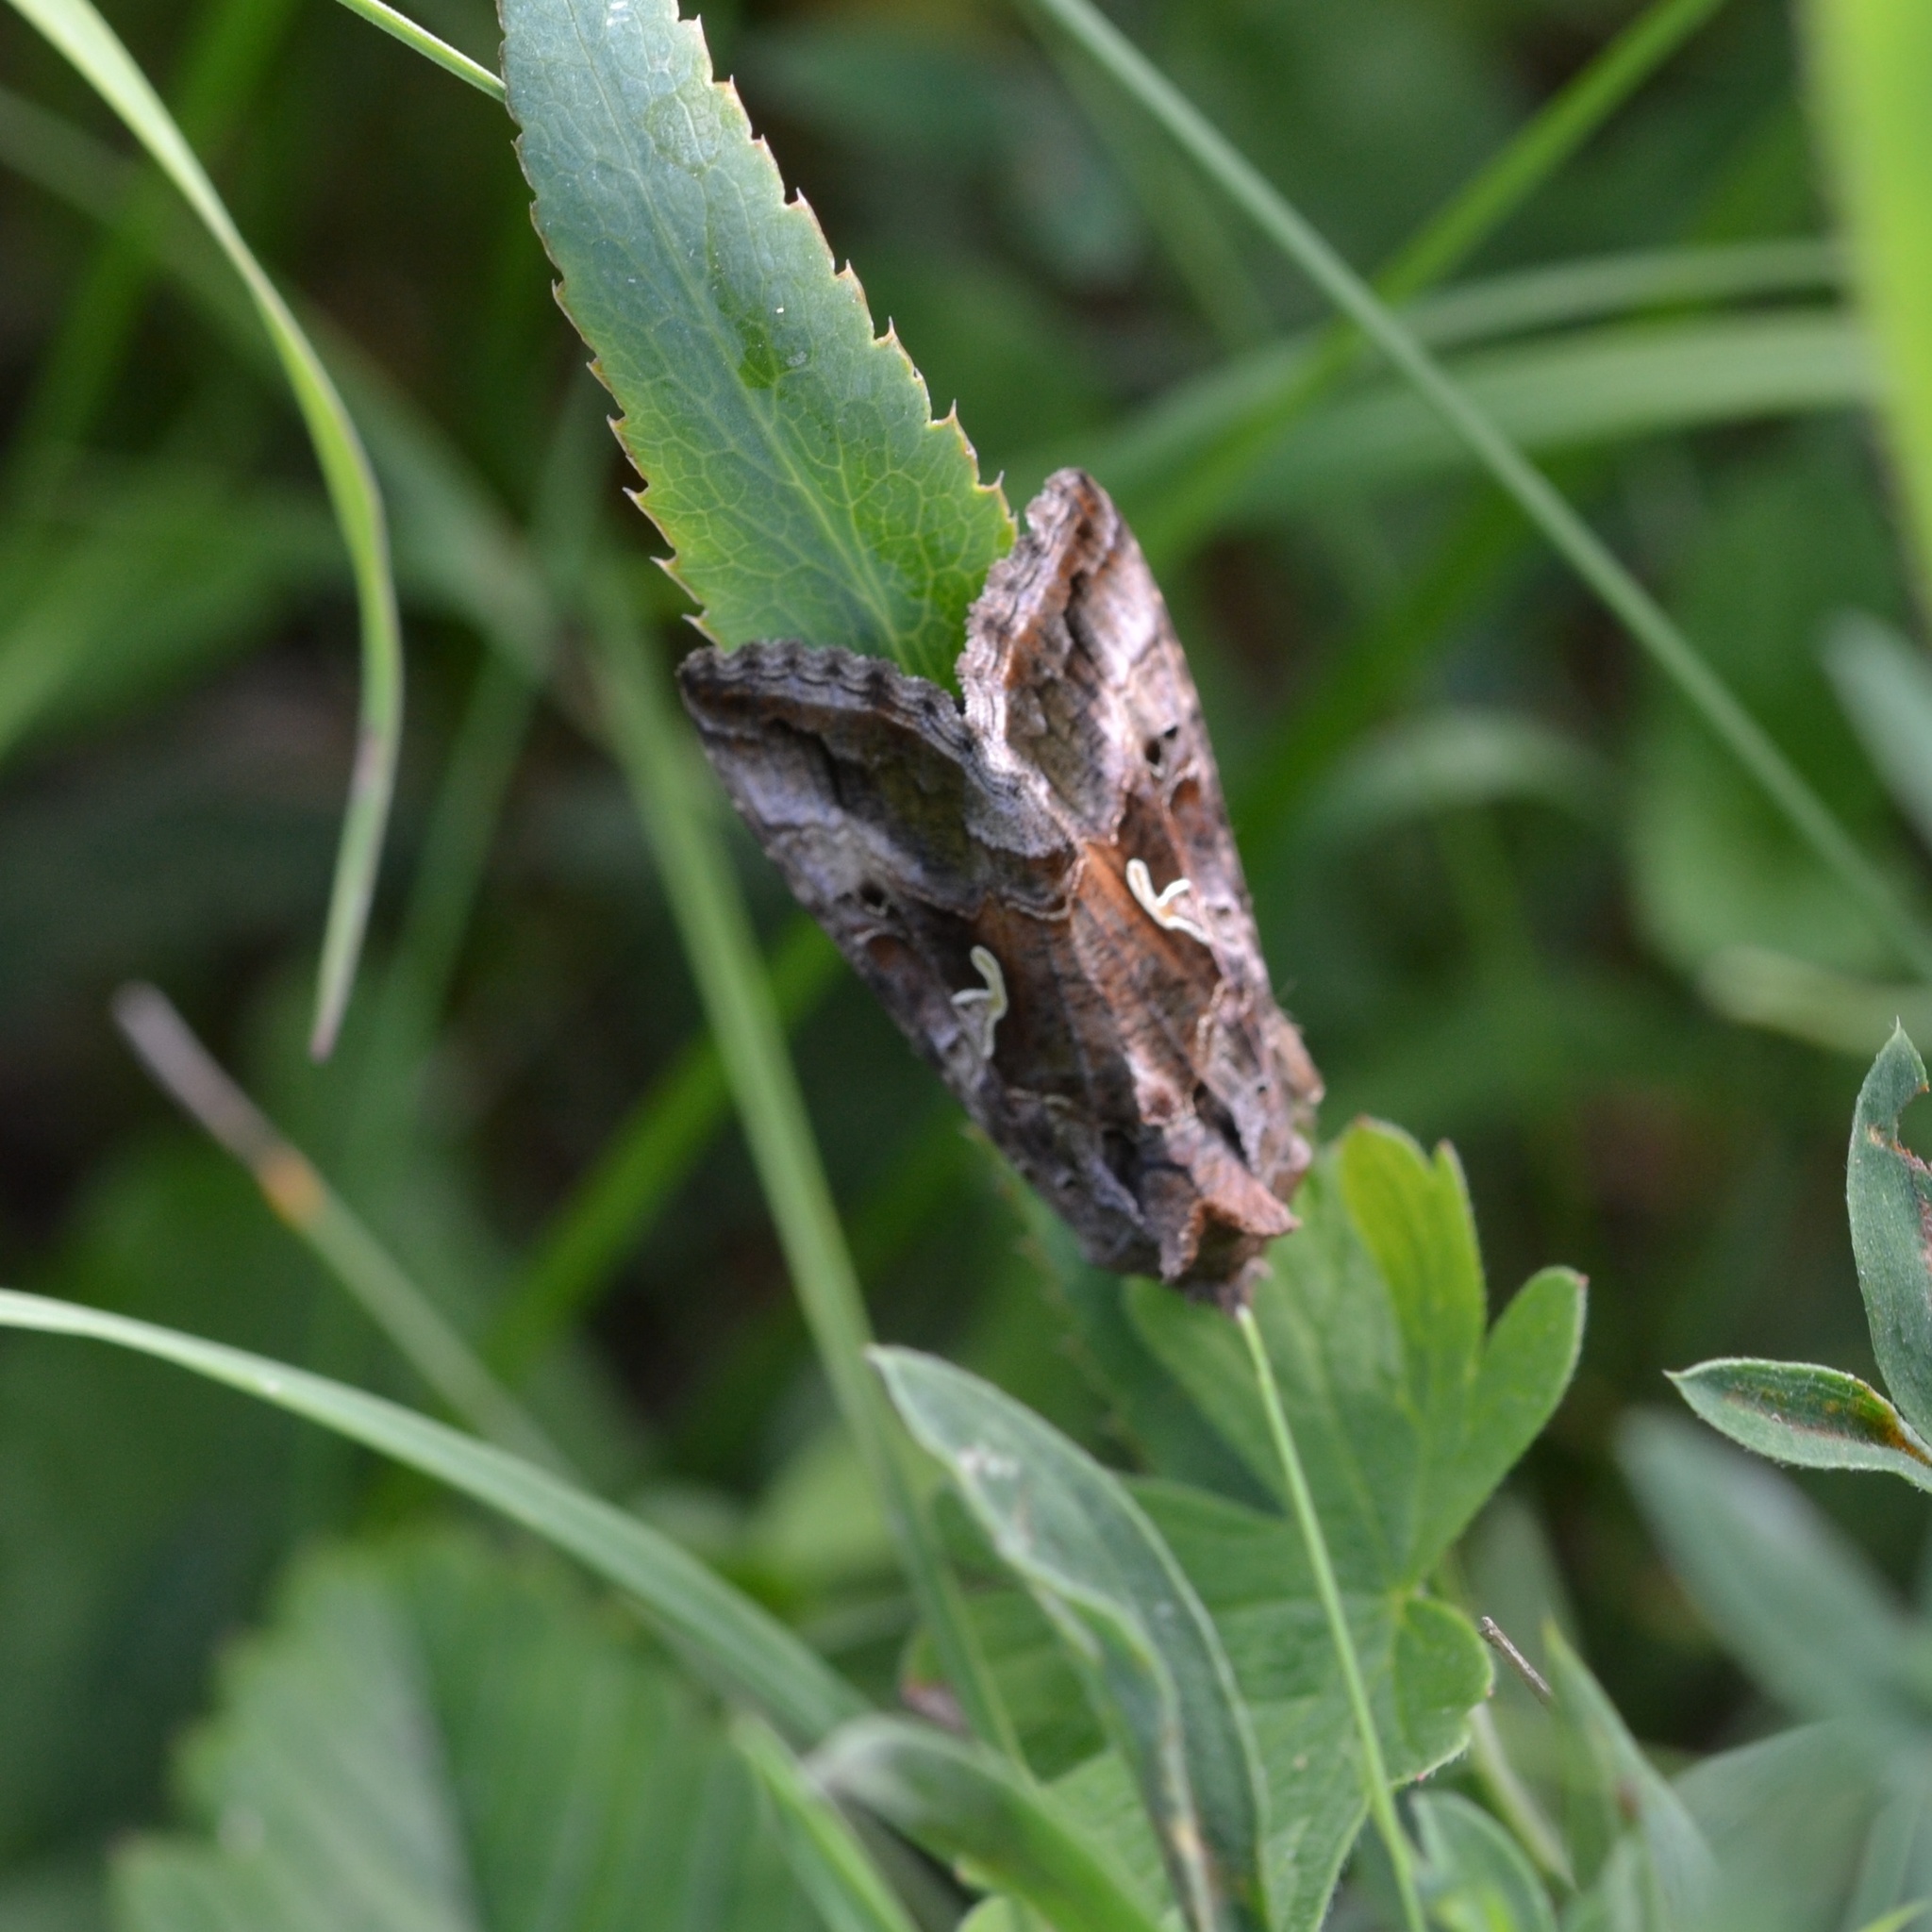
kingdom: Animalia
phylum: Arthropoda
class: Insecta
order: Lepidoptera
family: Noctuidae
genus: Autographa
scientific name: Autographa gamma
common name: Silver y
